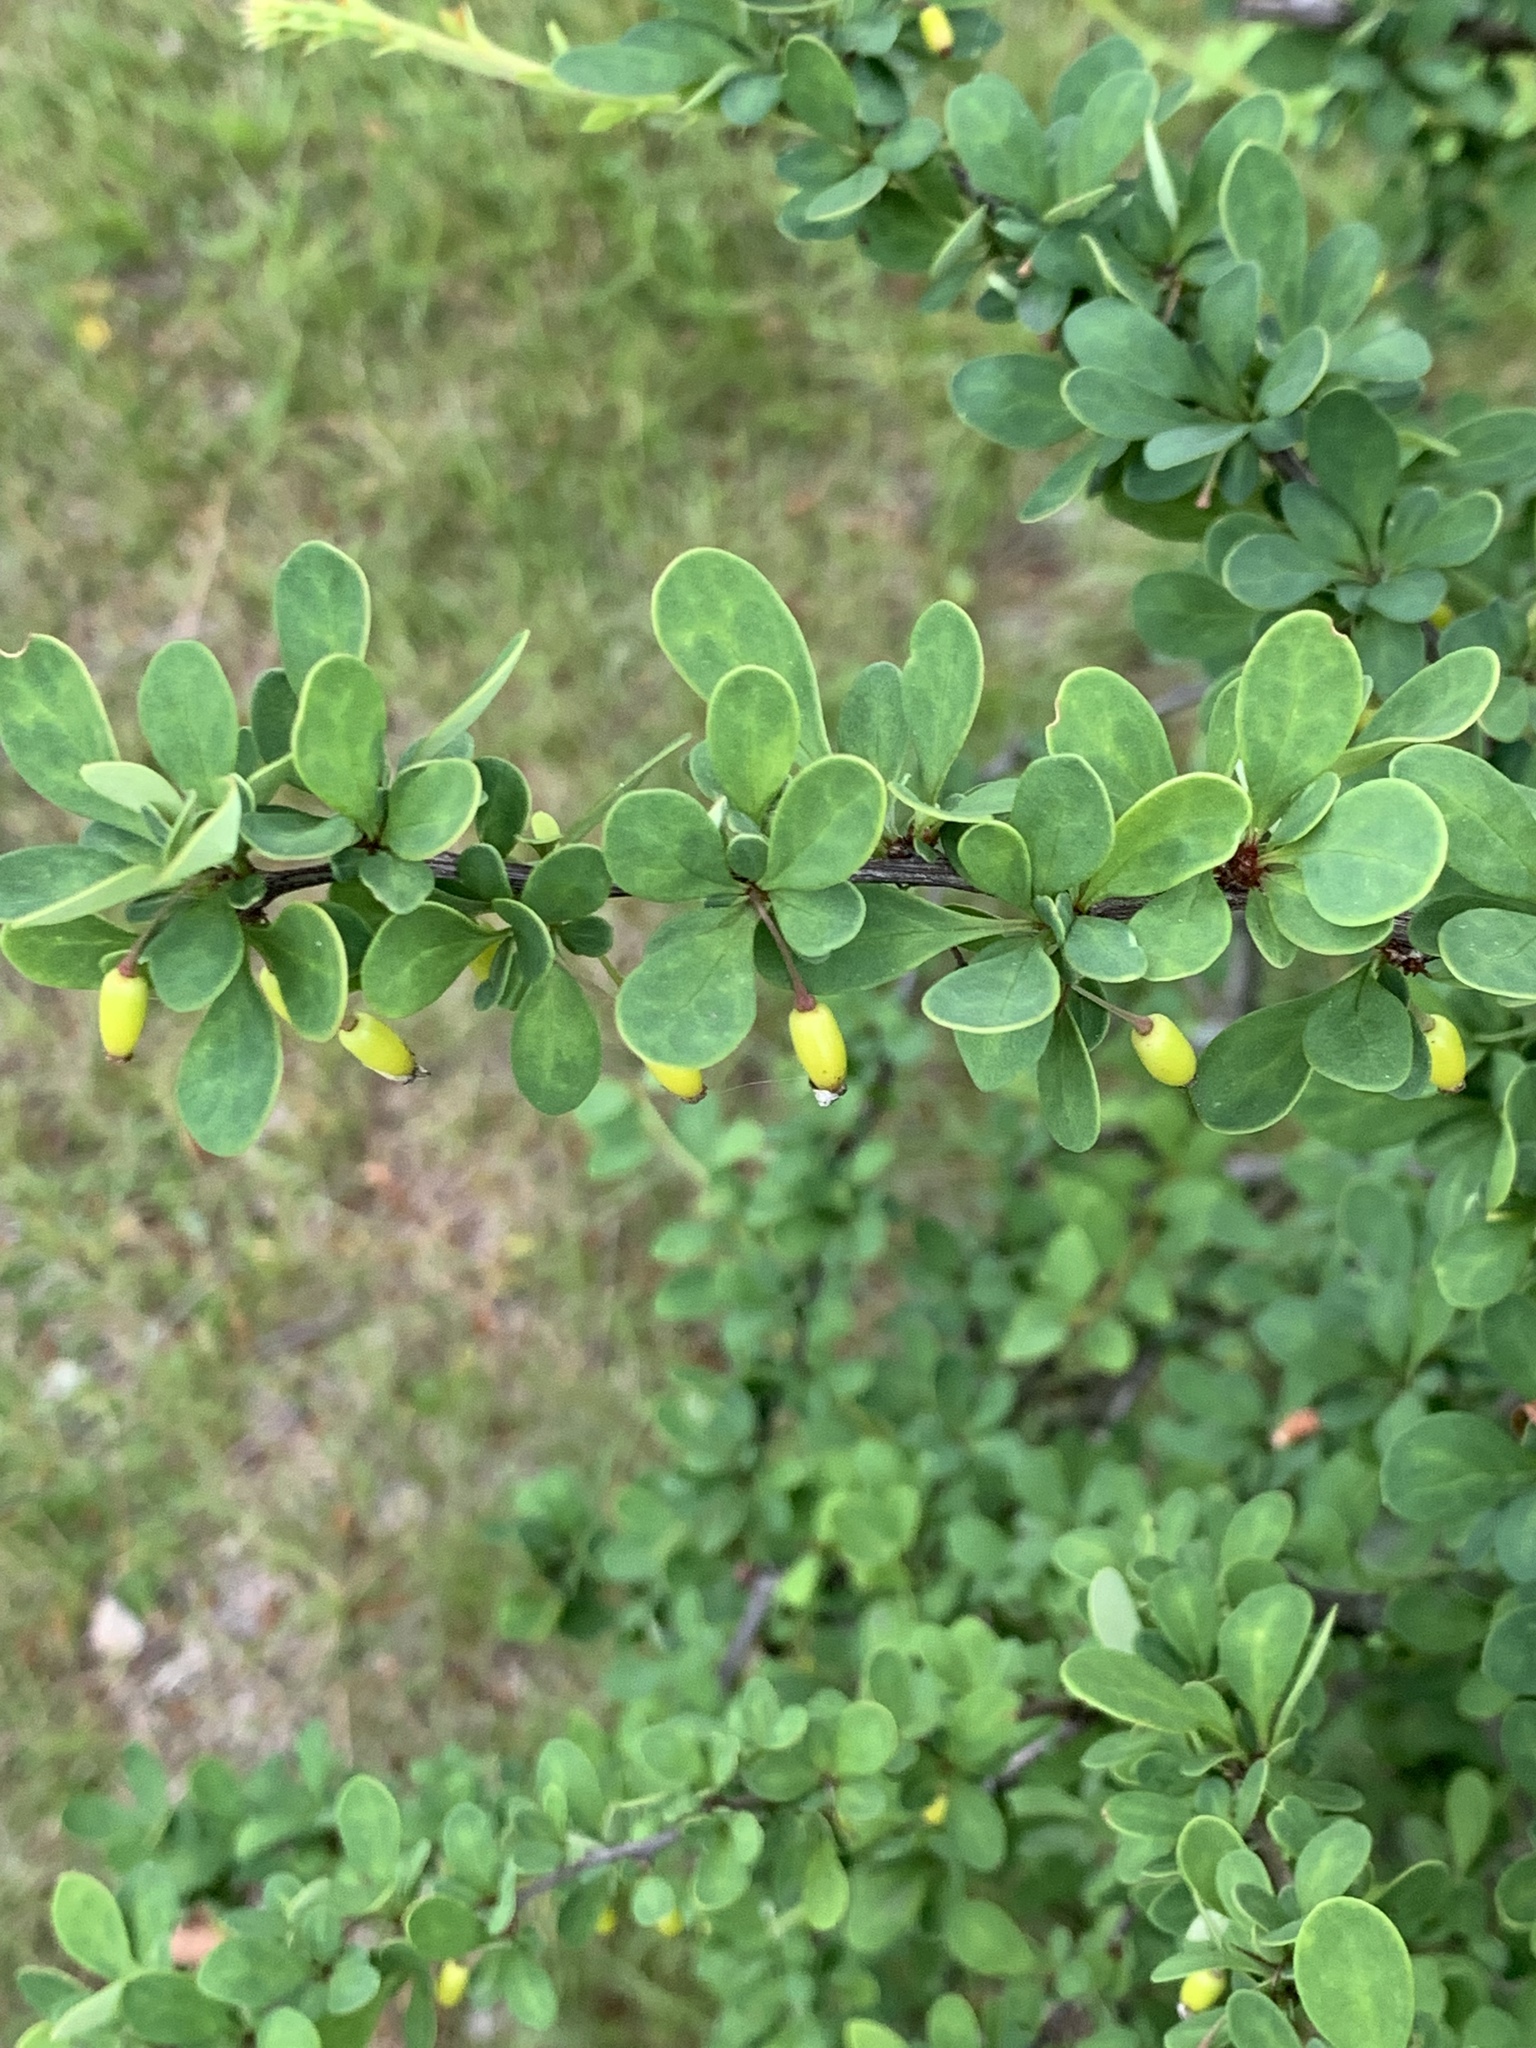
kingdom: Plantae
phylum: Tracheophyta
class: Magnoliopsida
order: Ranunculales
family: Berberidaceae
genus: Berberis
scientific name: Berberis thunbergii
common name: Japanese barberry
